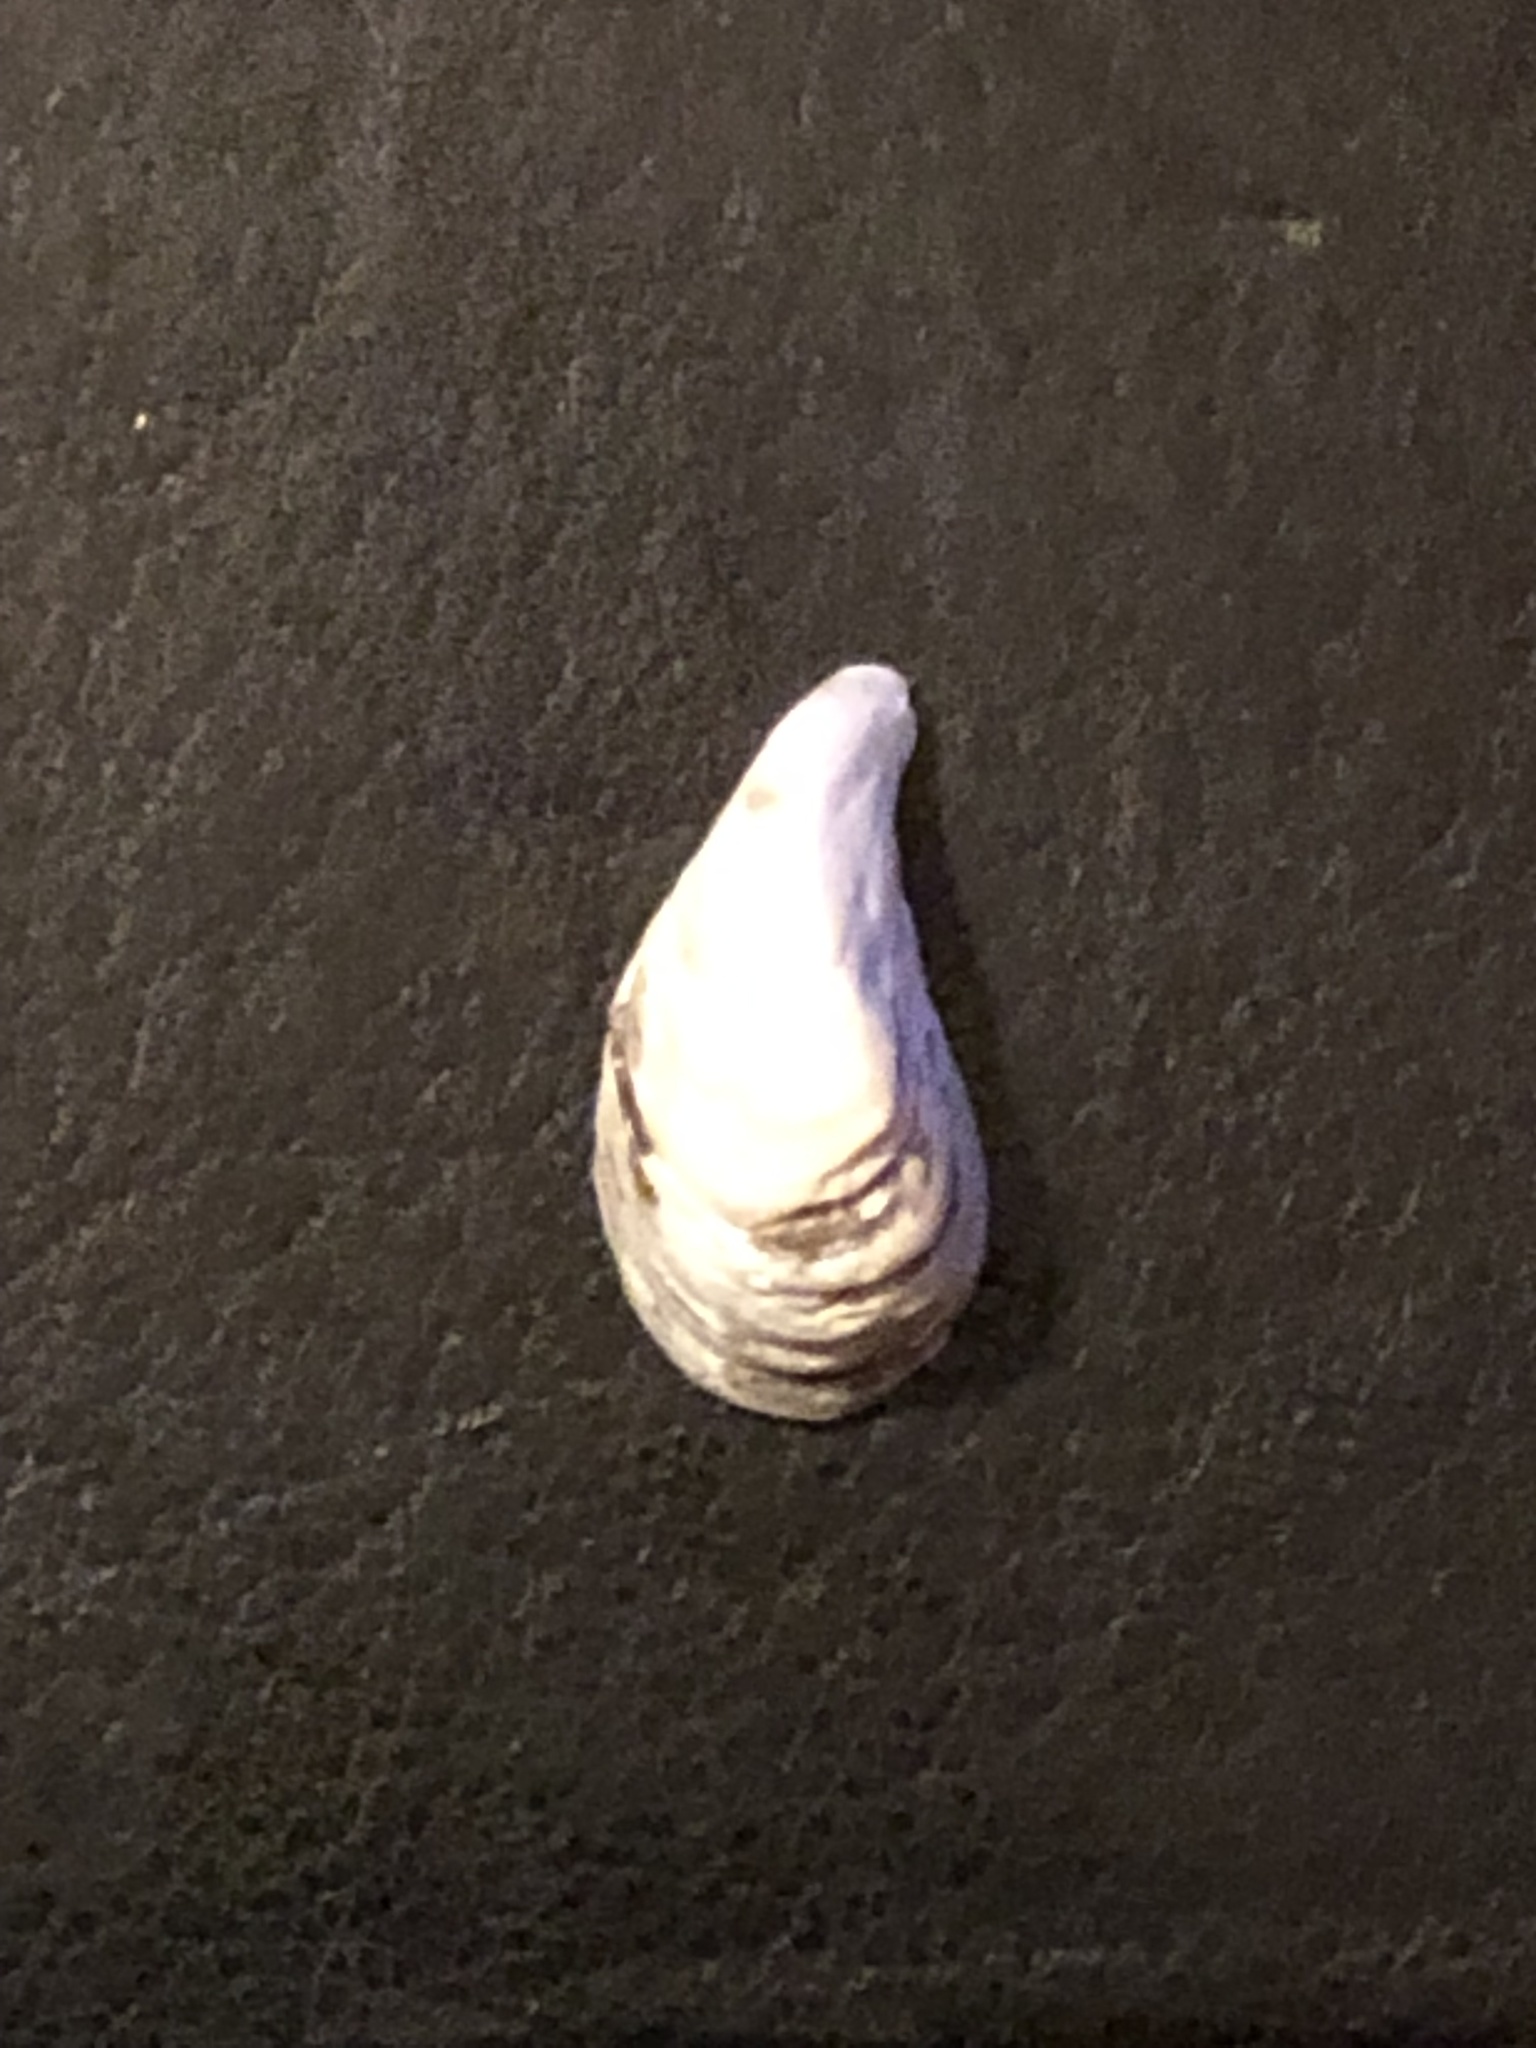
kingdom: Animalia
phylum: Mollusca
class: Bivalvia
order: Myida
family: Dreissenidae
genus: Dreissena
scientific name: Dreissena bugensis
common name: Quagga mussel
